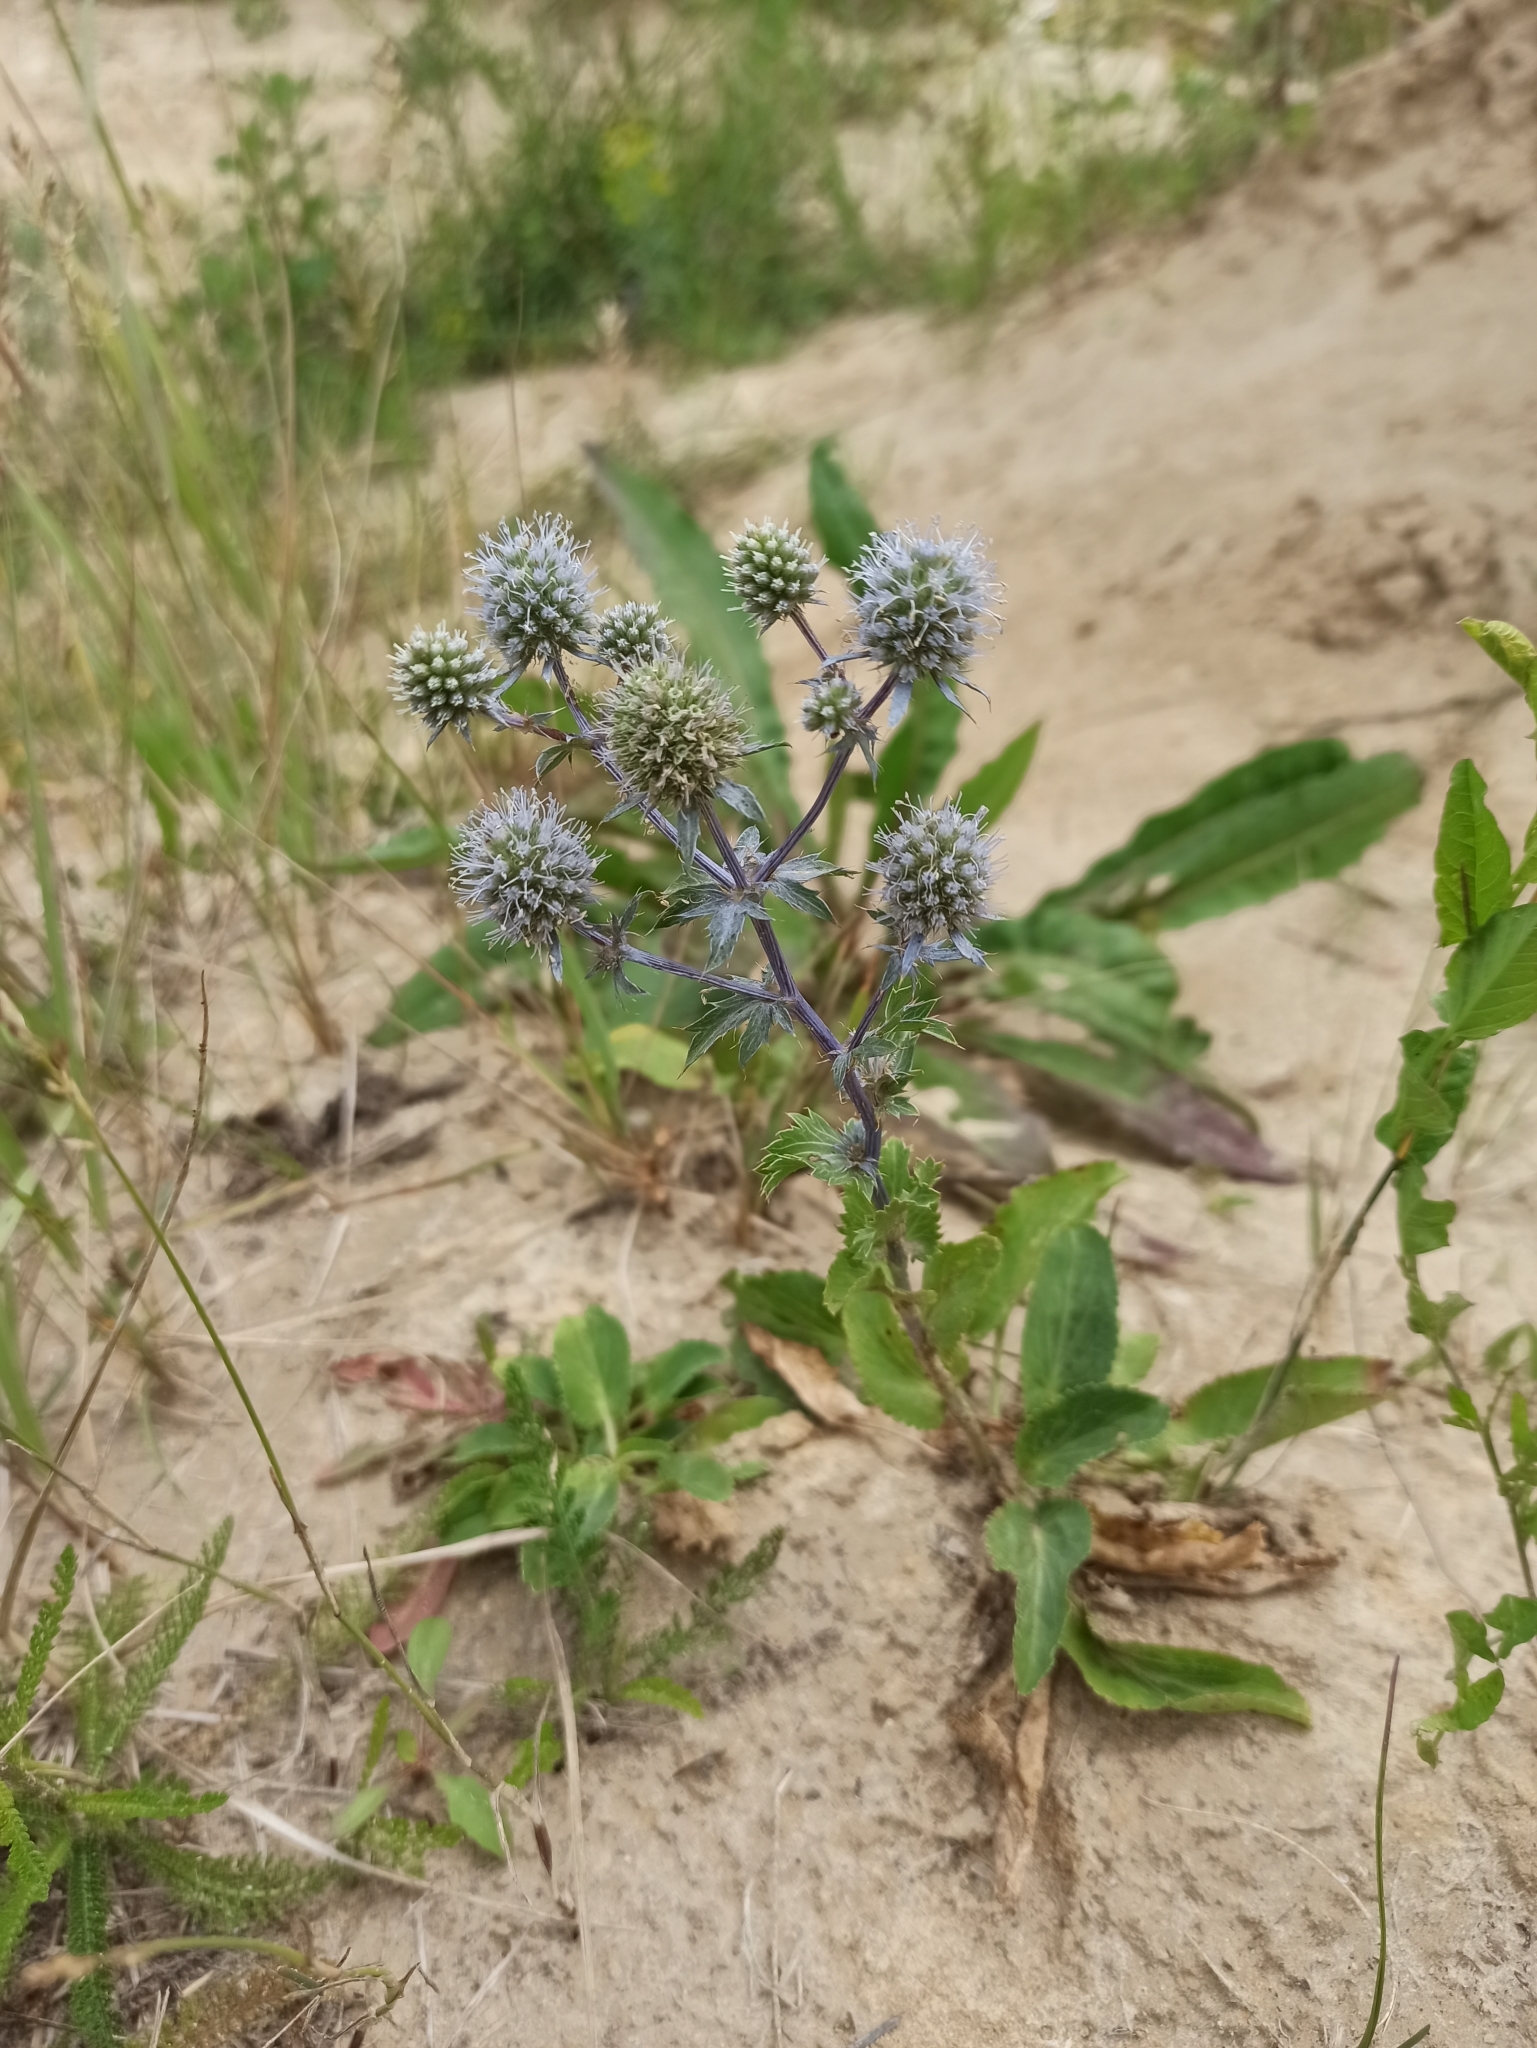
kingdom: Plantae
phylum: Tracheophyta
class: Magnoliopsida
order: Apiales
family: Apiaceae
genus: Eryngium
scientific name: Eryngium planum
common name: Blue eryngo
